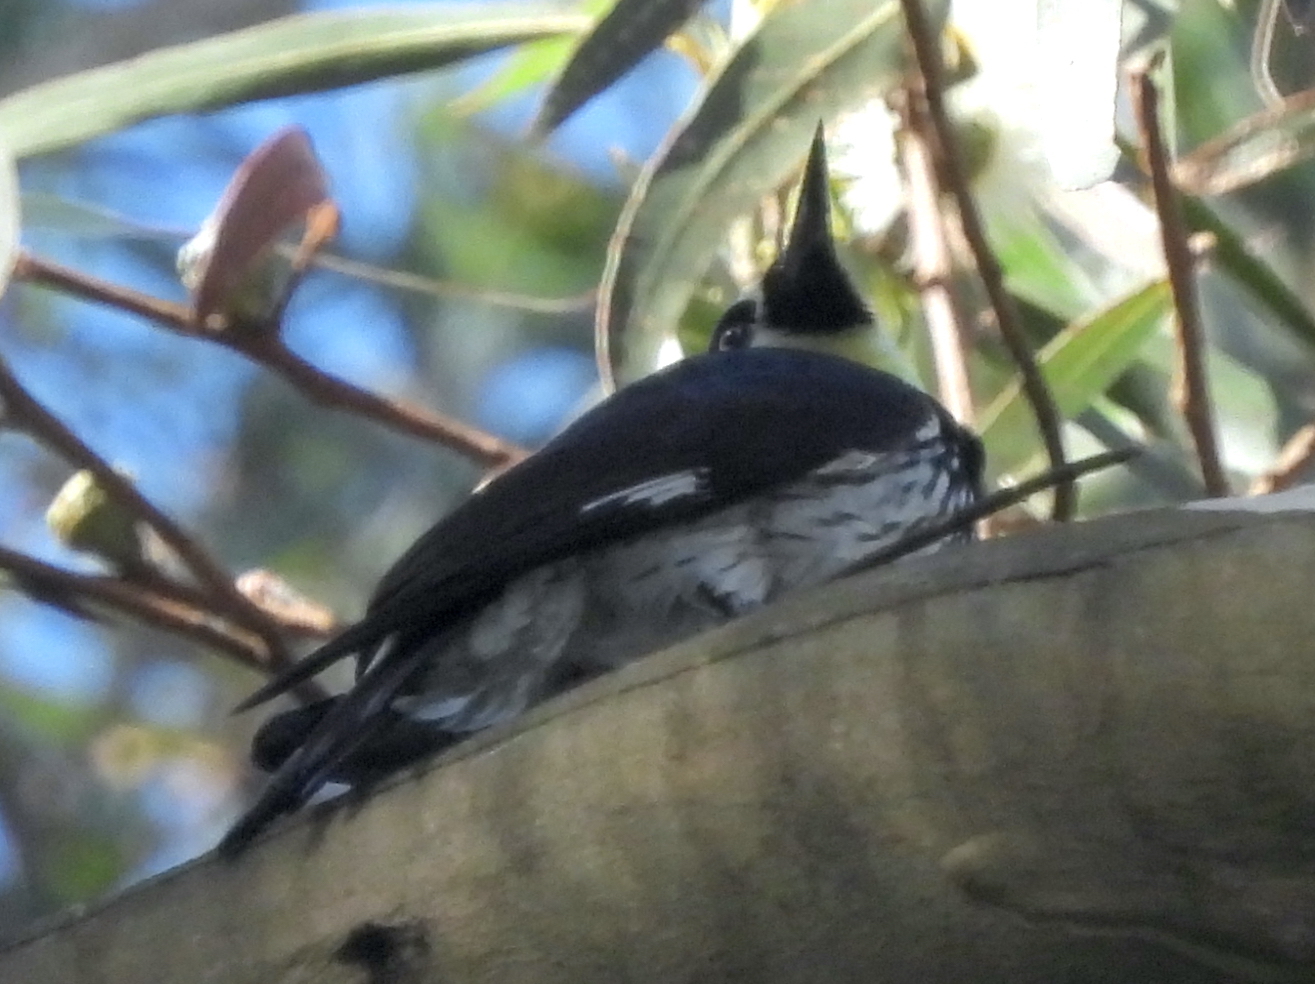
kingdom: Animalia
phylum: Chordata
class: Aves
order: Piciformes
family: Picidae
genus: Melanerpes
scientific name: Melanerpes formicivorus
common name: Acorn woodpecker
